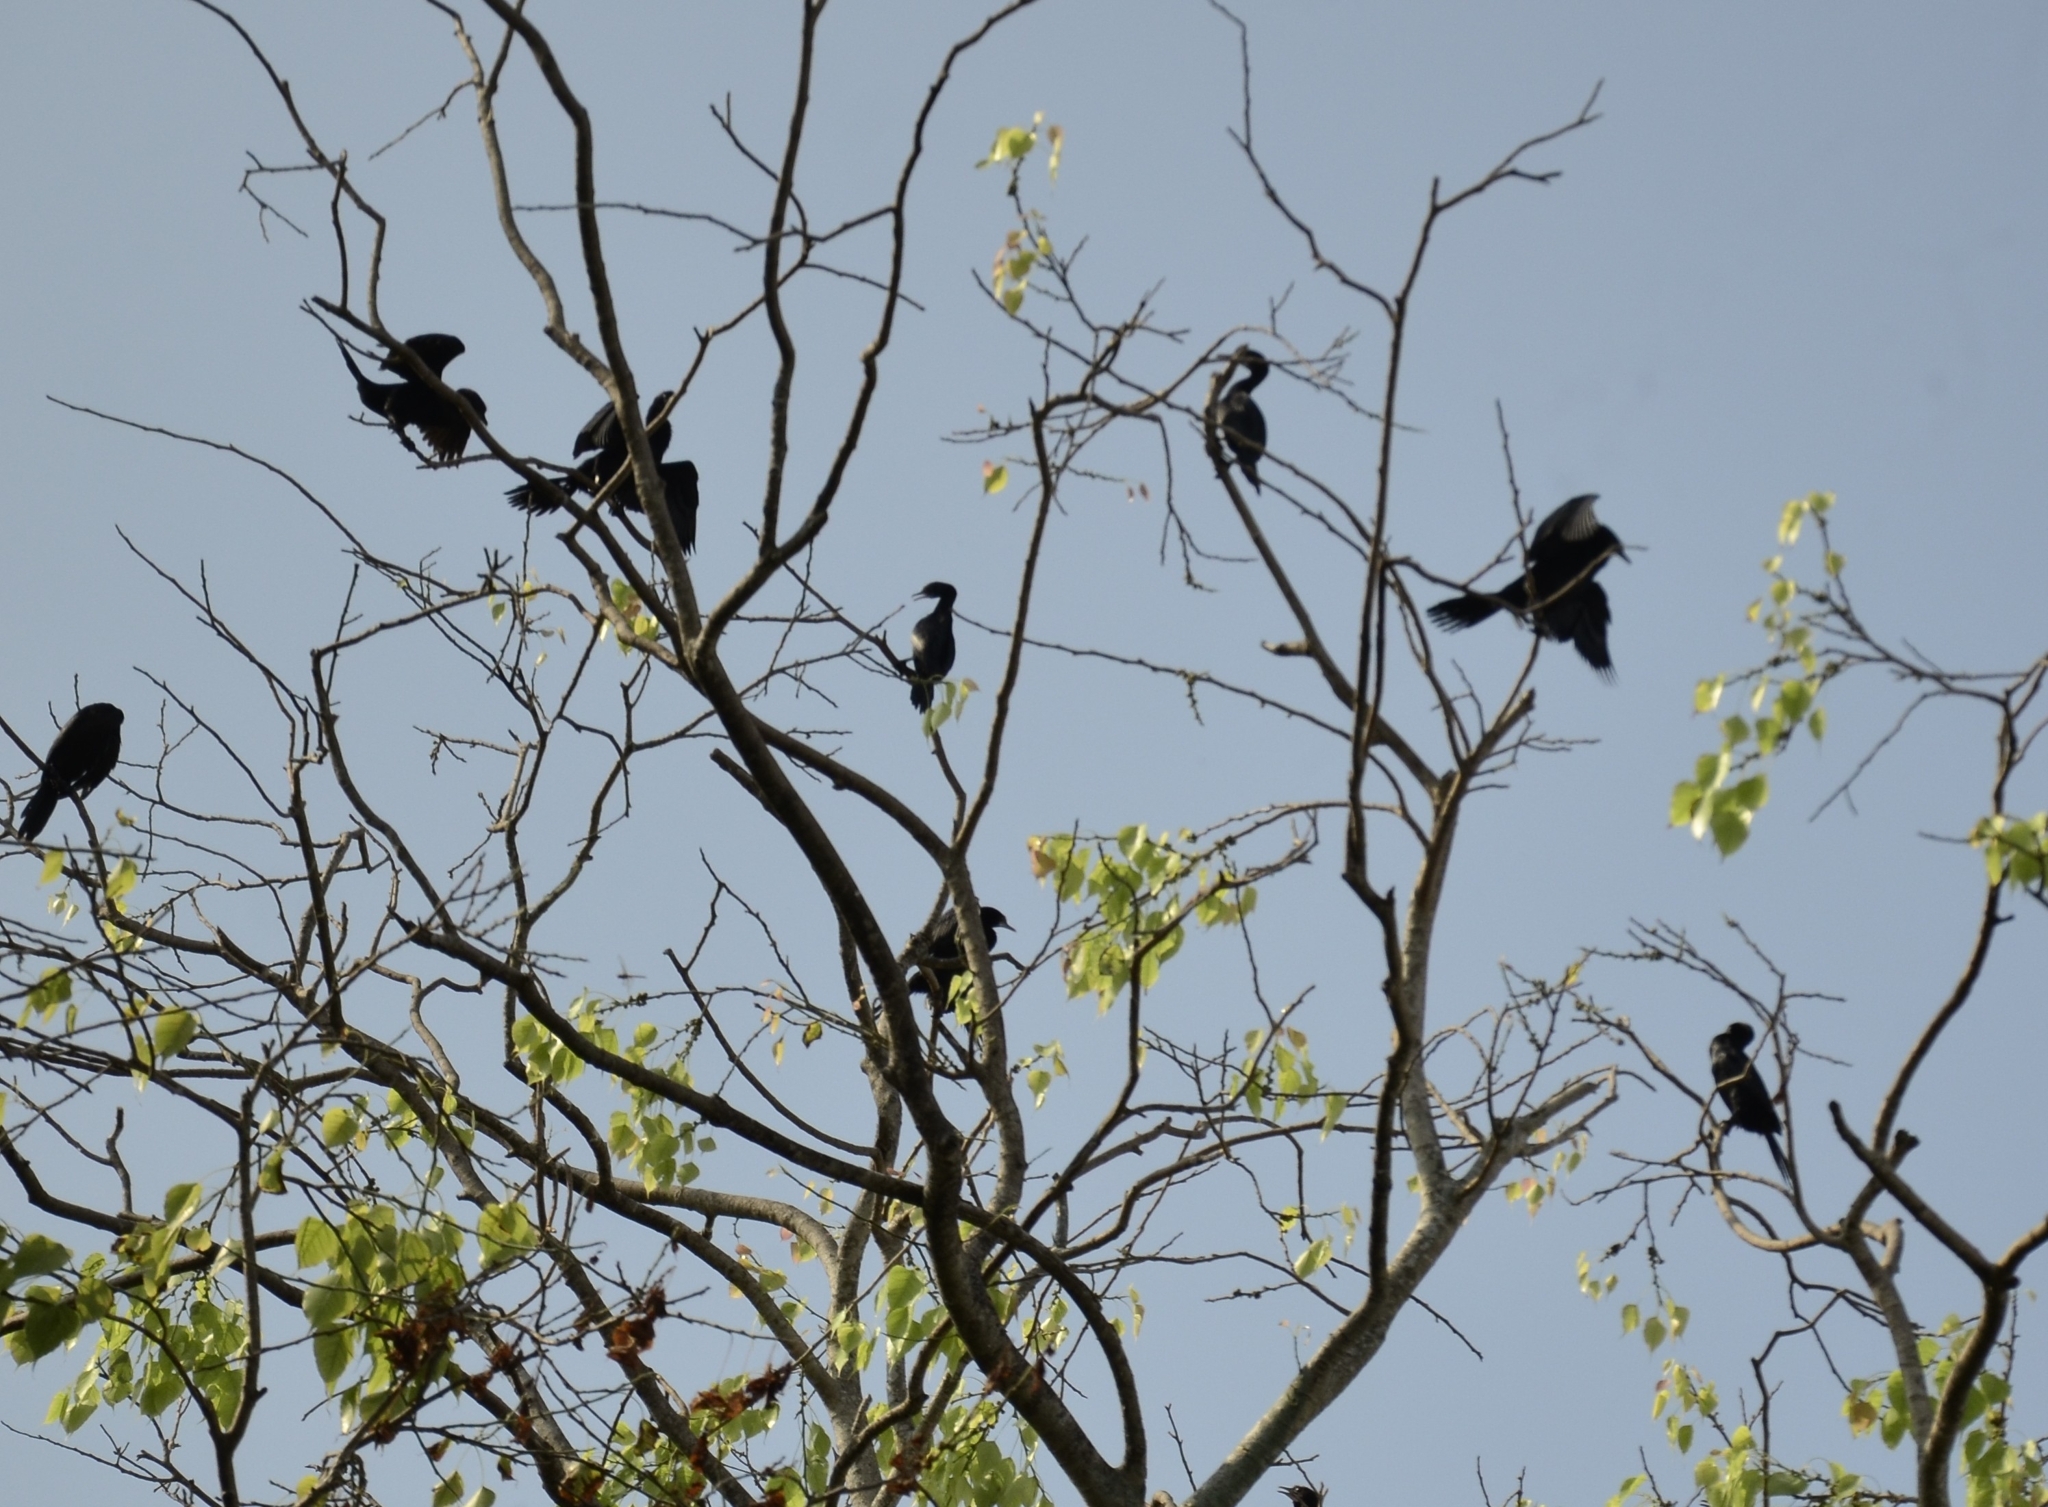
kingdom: Animalia
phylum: Chordata
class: Aves
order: Suliformes
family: Phalacrocoracidae
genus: Microcarbo
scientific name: Microcarbo niger
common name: Little cormorant
